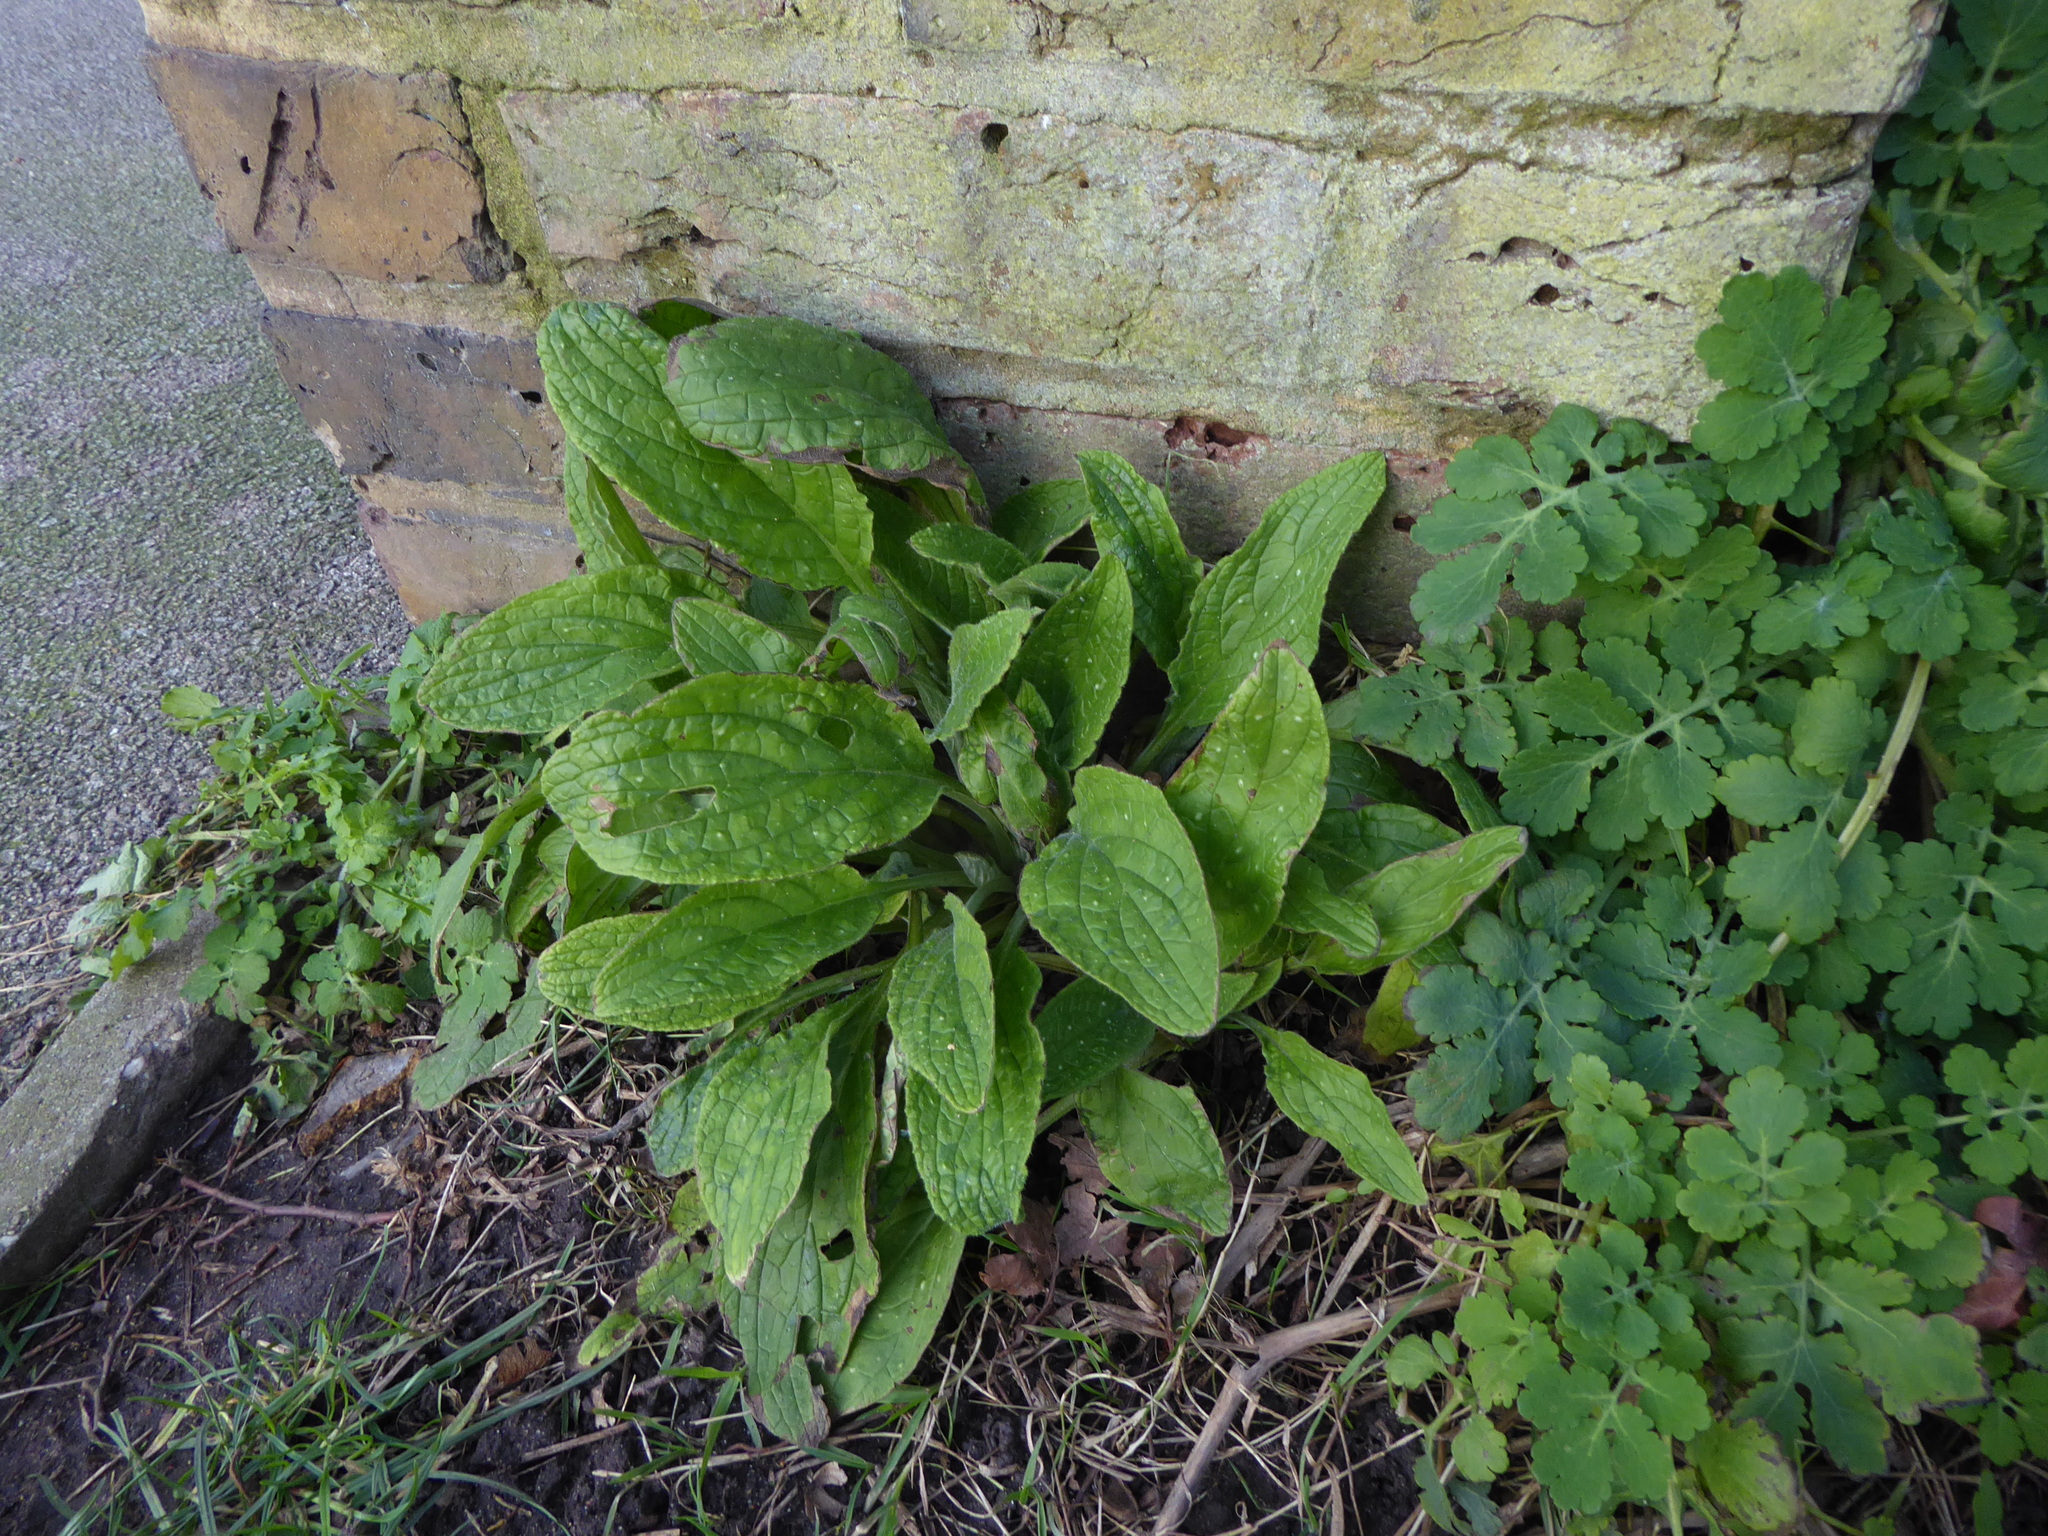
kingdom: Plantae
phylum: Tracheophyta
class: Magnoliopsida
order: Boraginales
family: Boraginaceae
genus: Pentaglottis
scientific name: Pentaglottis sempervirens
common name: Green alkanet
